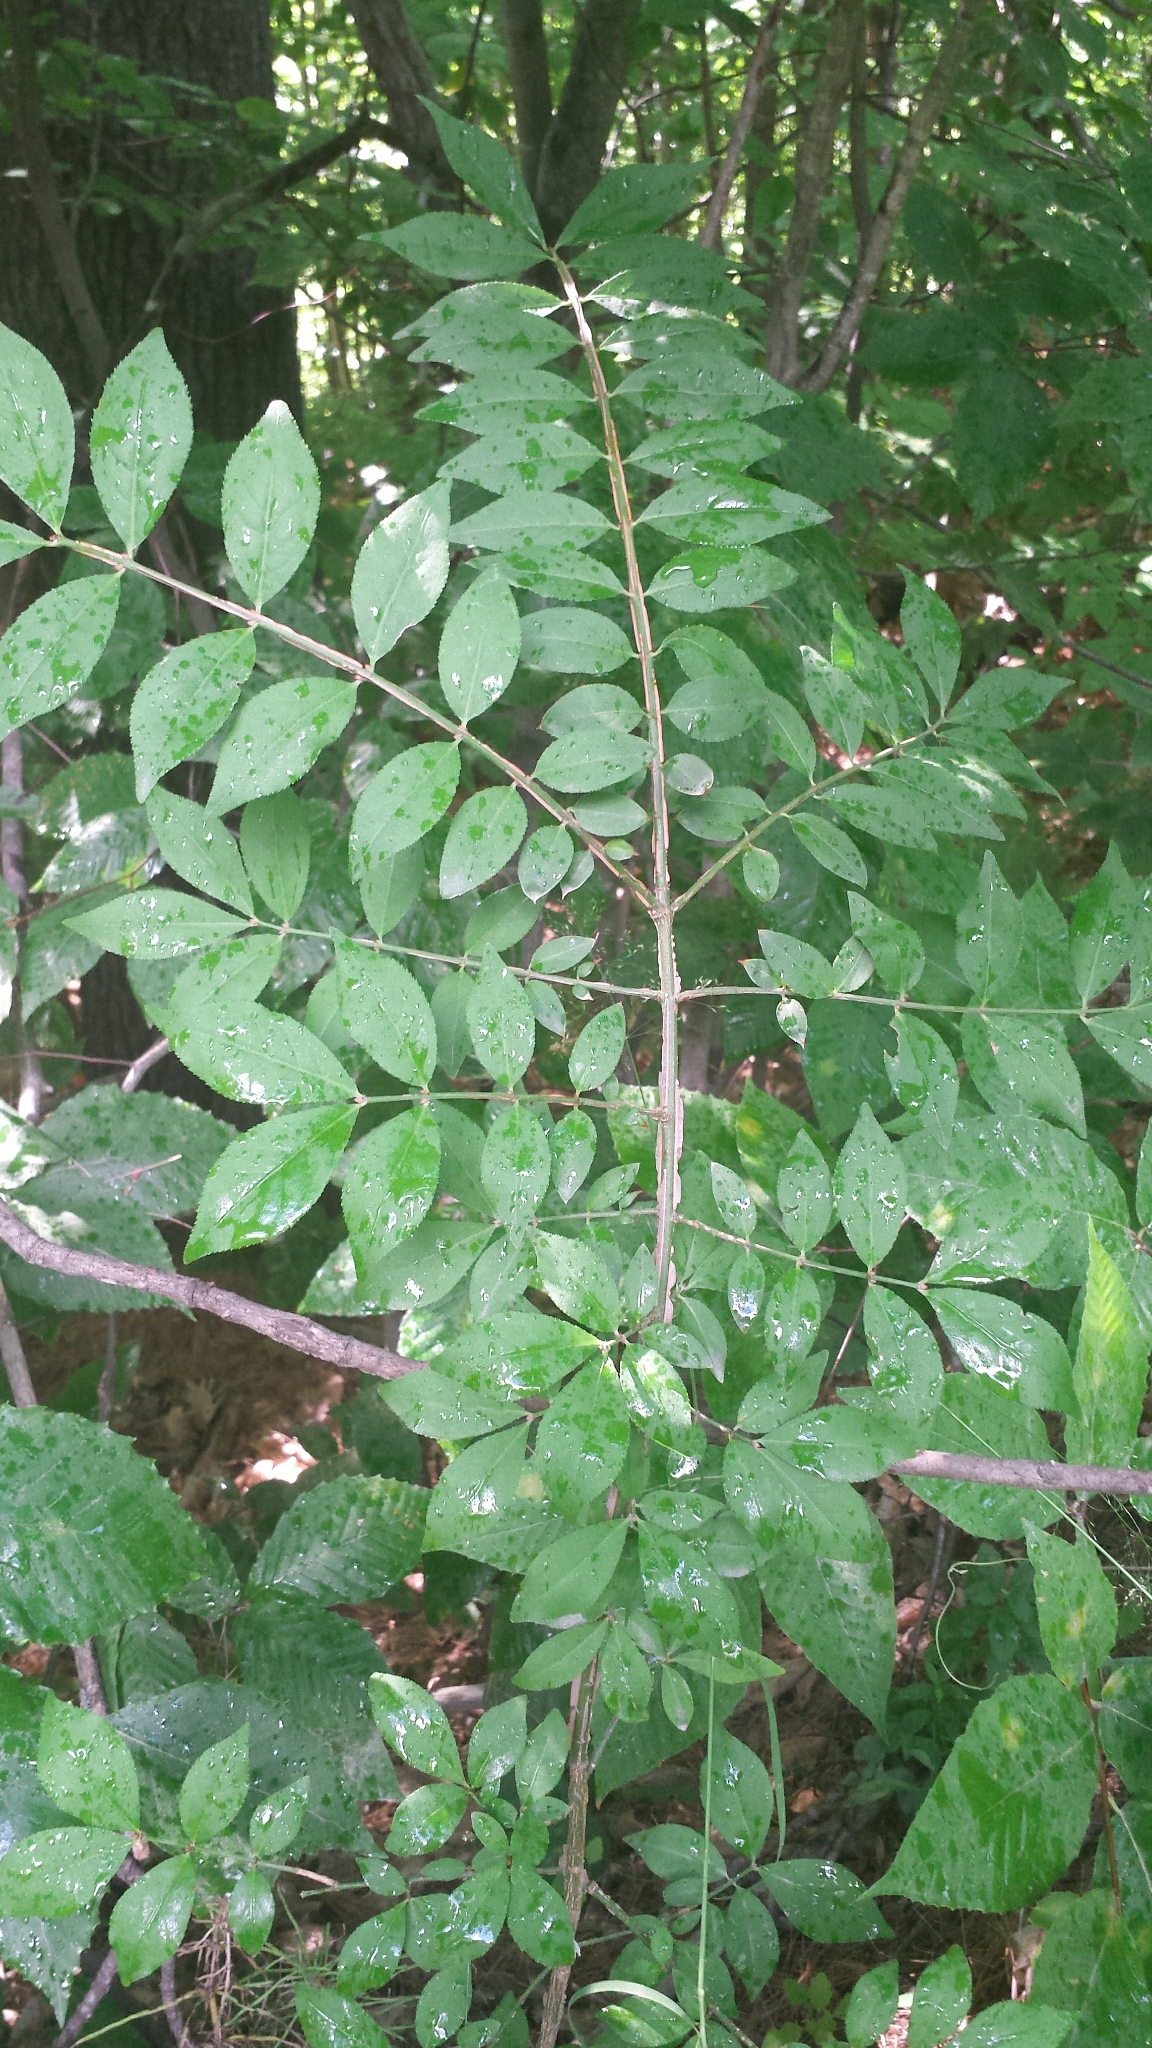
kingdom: Plantae
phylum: Tracheophyta
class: Magnoliopsida
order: Celastrales
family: Celastraceae
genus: Euonymus
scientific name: Euonymus alatus
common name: Winged euonymus
